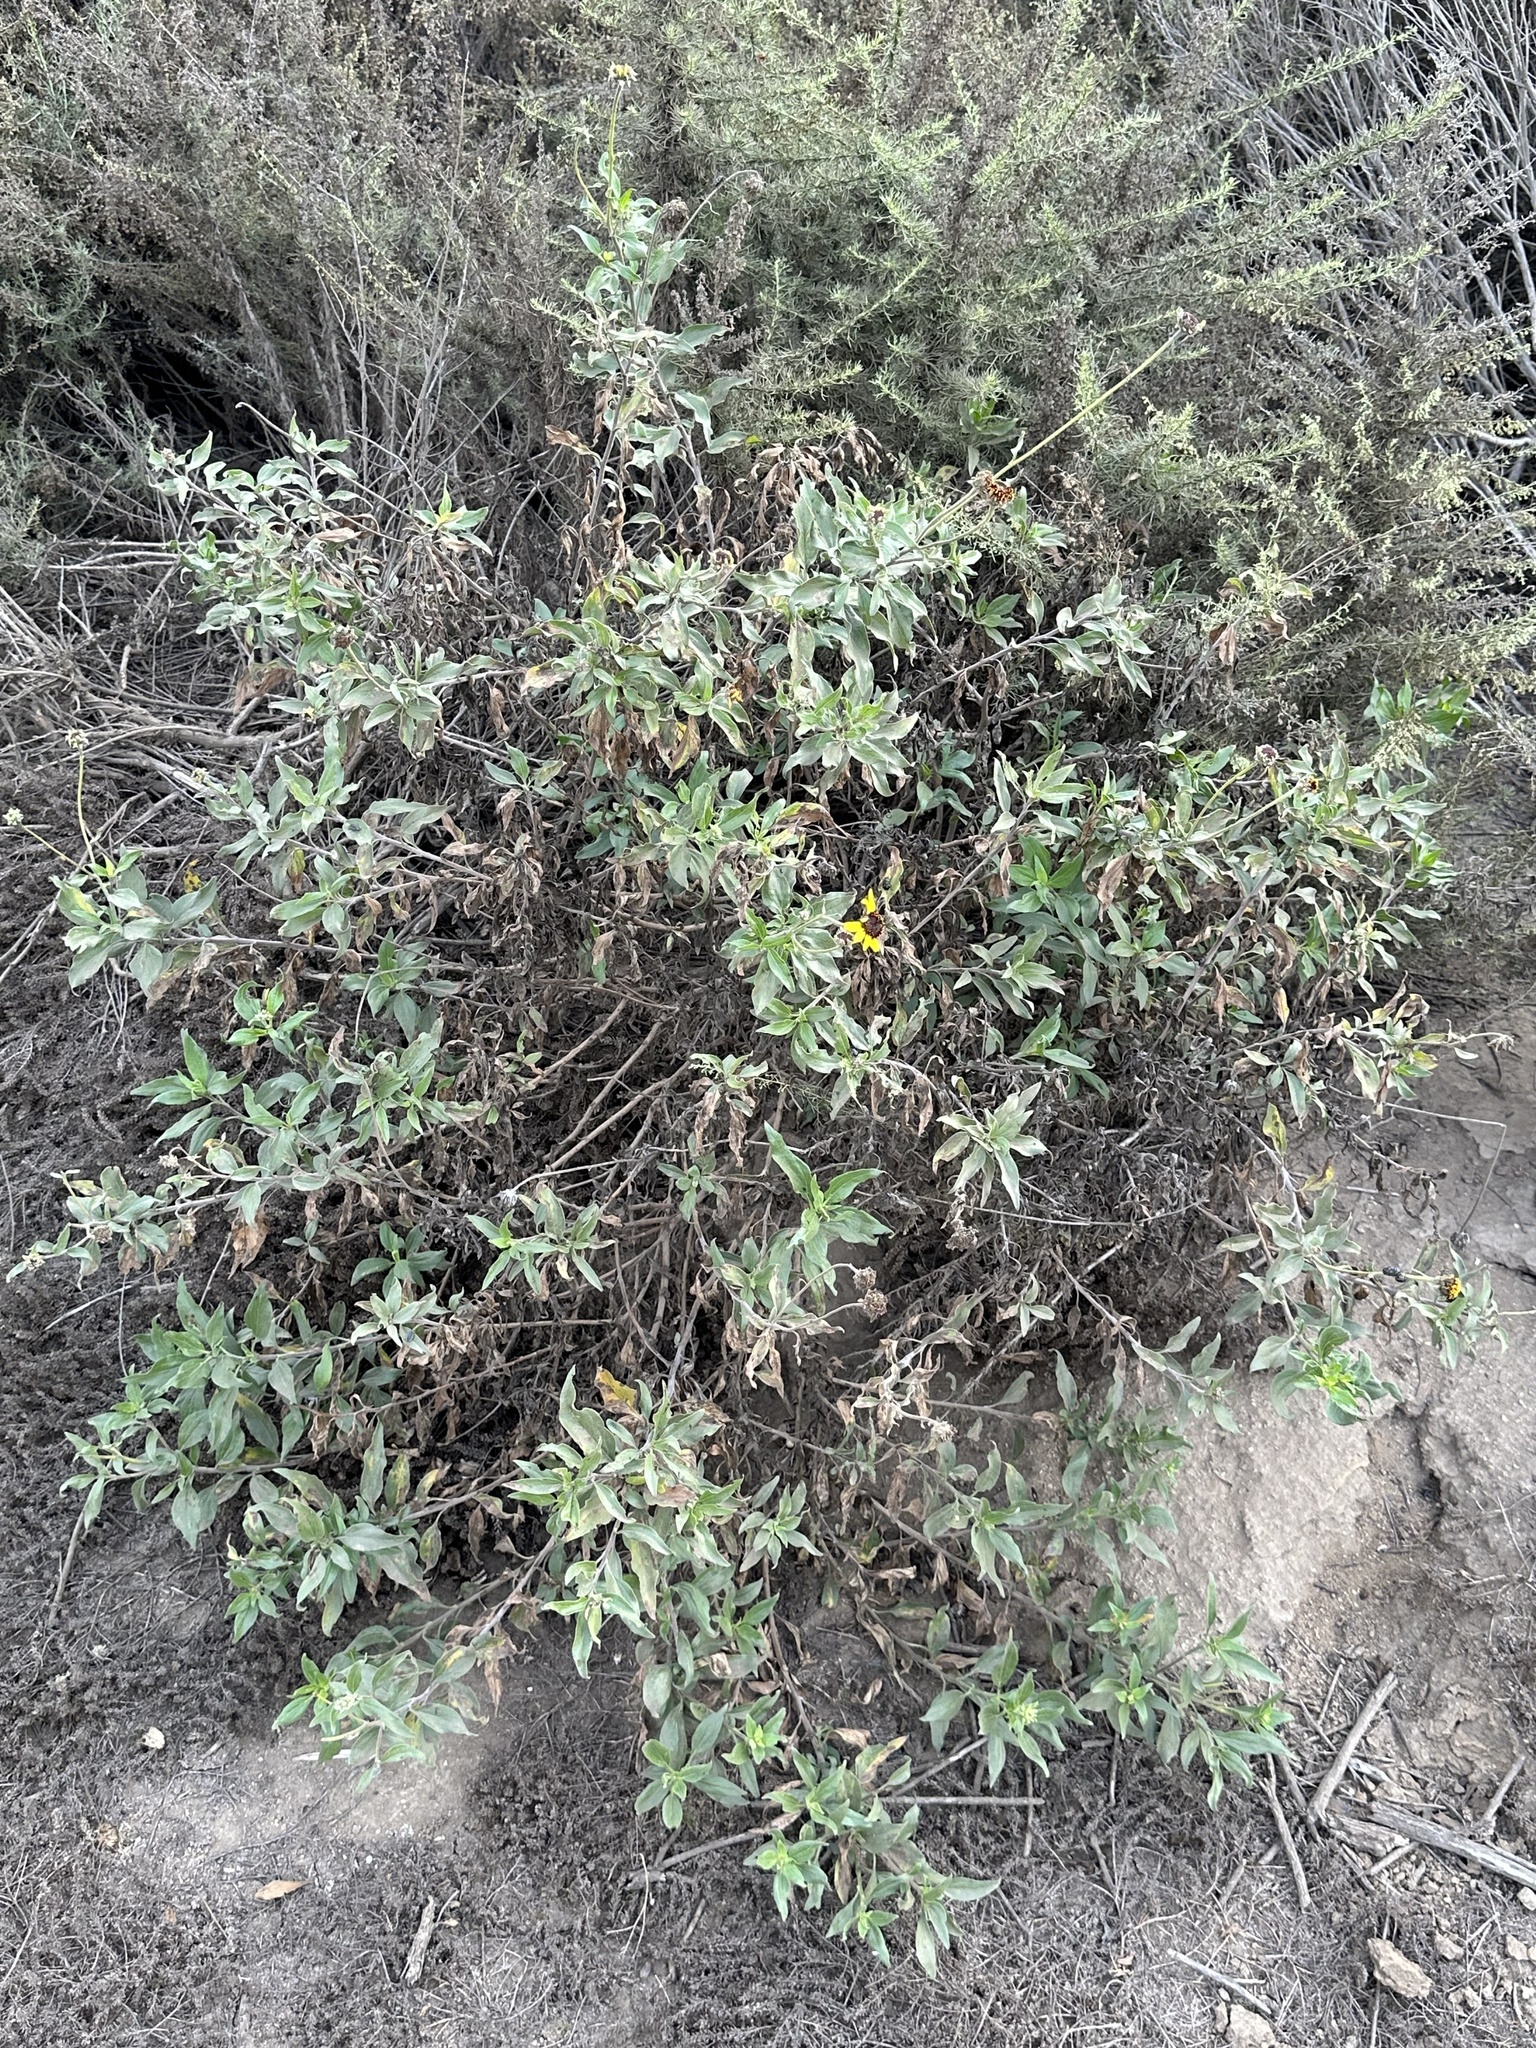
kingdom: Plantae
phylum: Tracheophyta
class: Magnoliopsida
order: Asterales
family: Asteraceae
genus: Encelia
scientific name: Encelia californica
